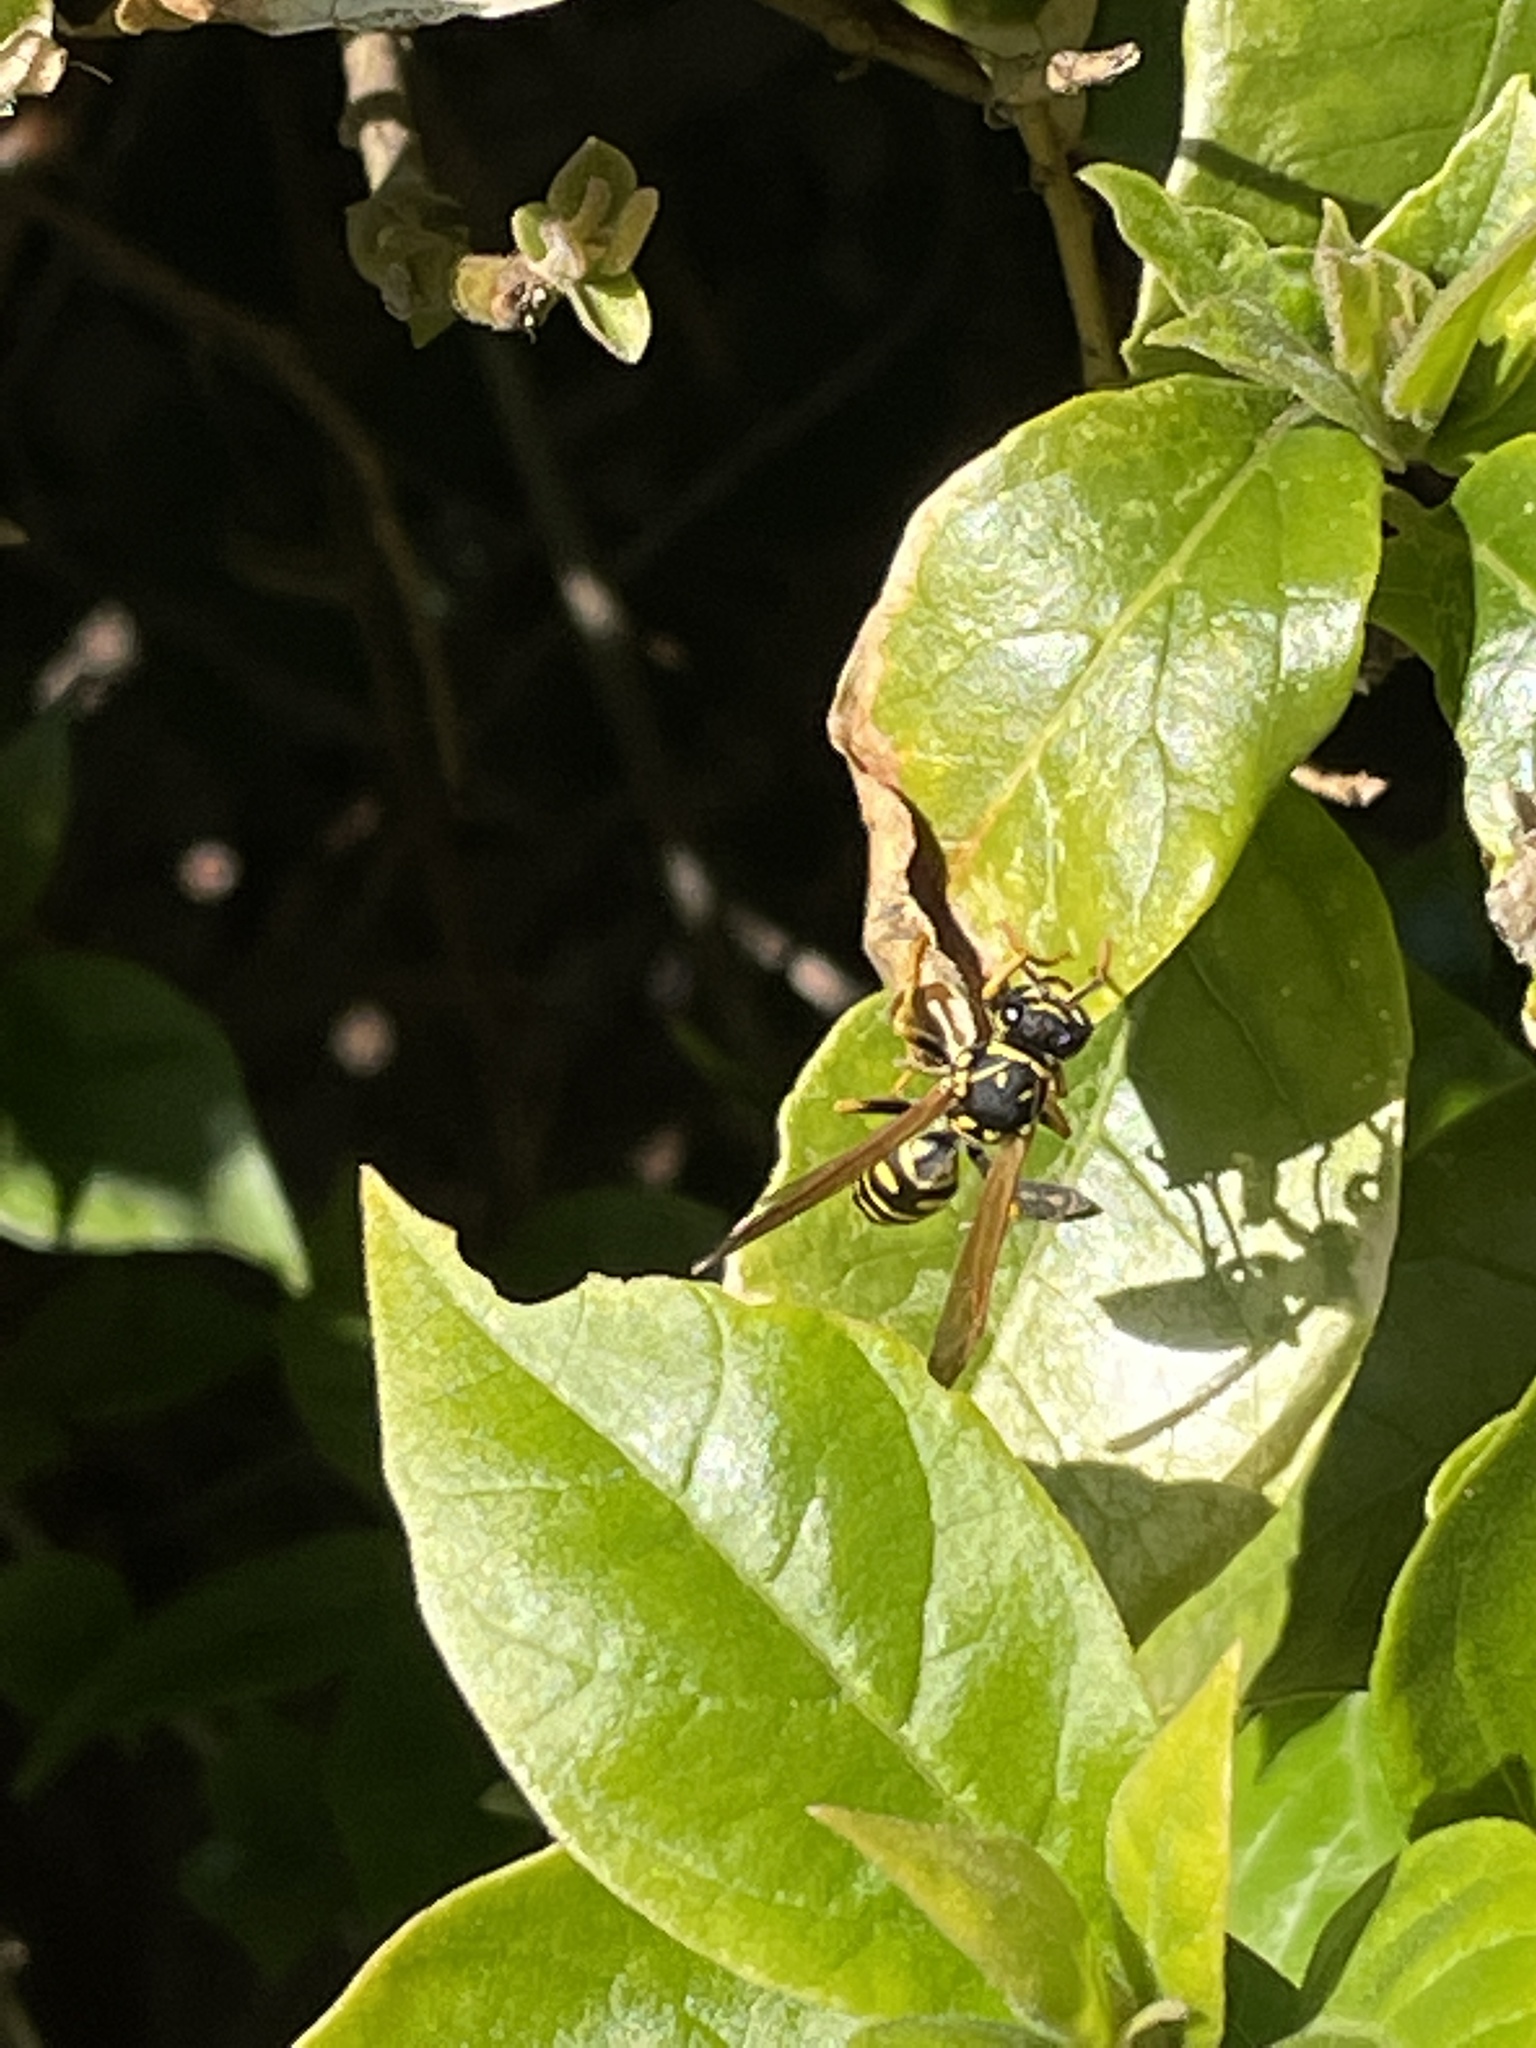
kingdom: Animalia
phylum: Arthropoda
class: Insecta
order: Hymenoptera
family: Eumenidae
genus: Polistes
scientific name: Polistes dominula
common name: Paper wasp
